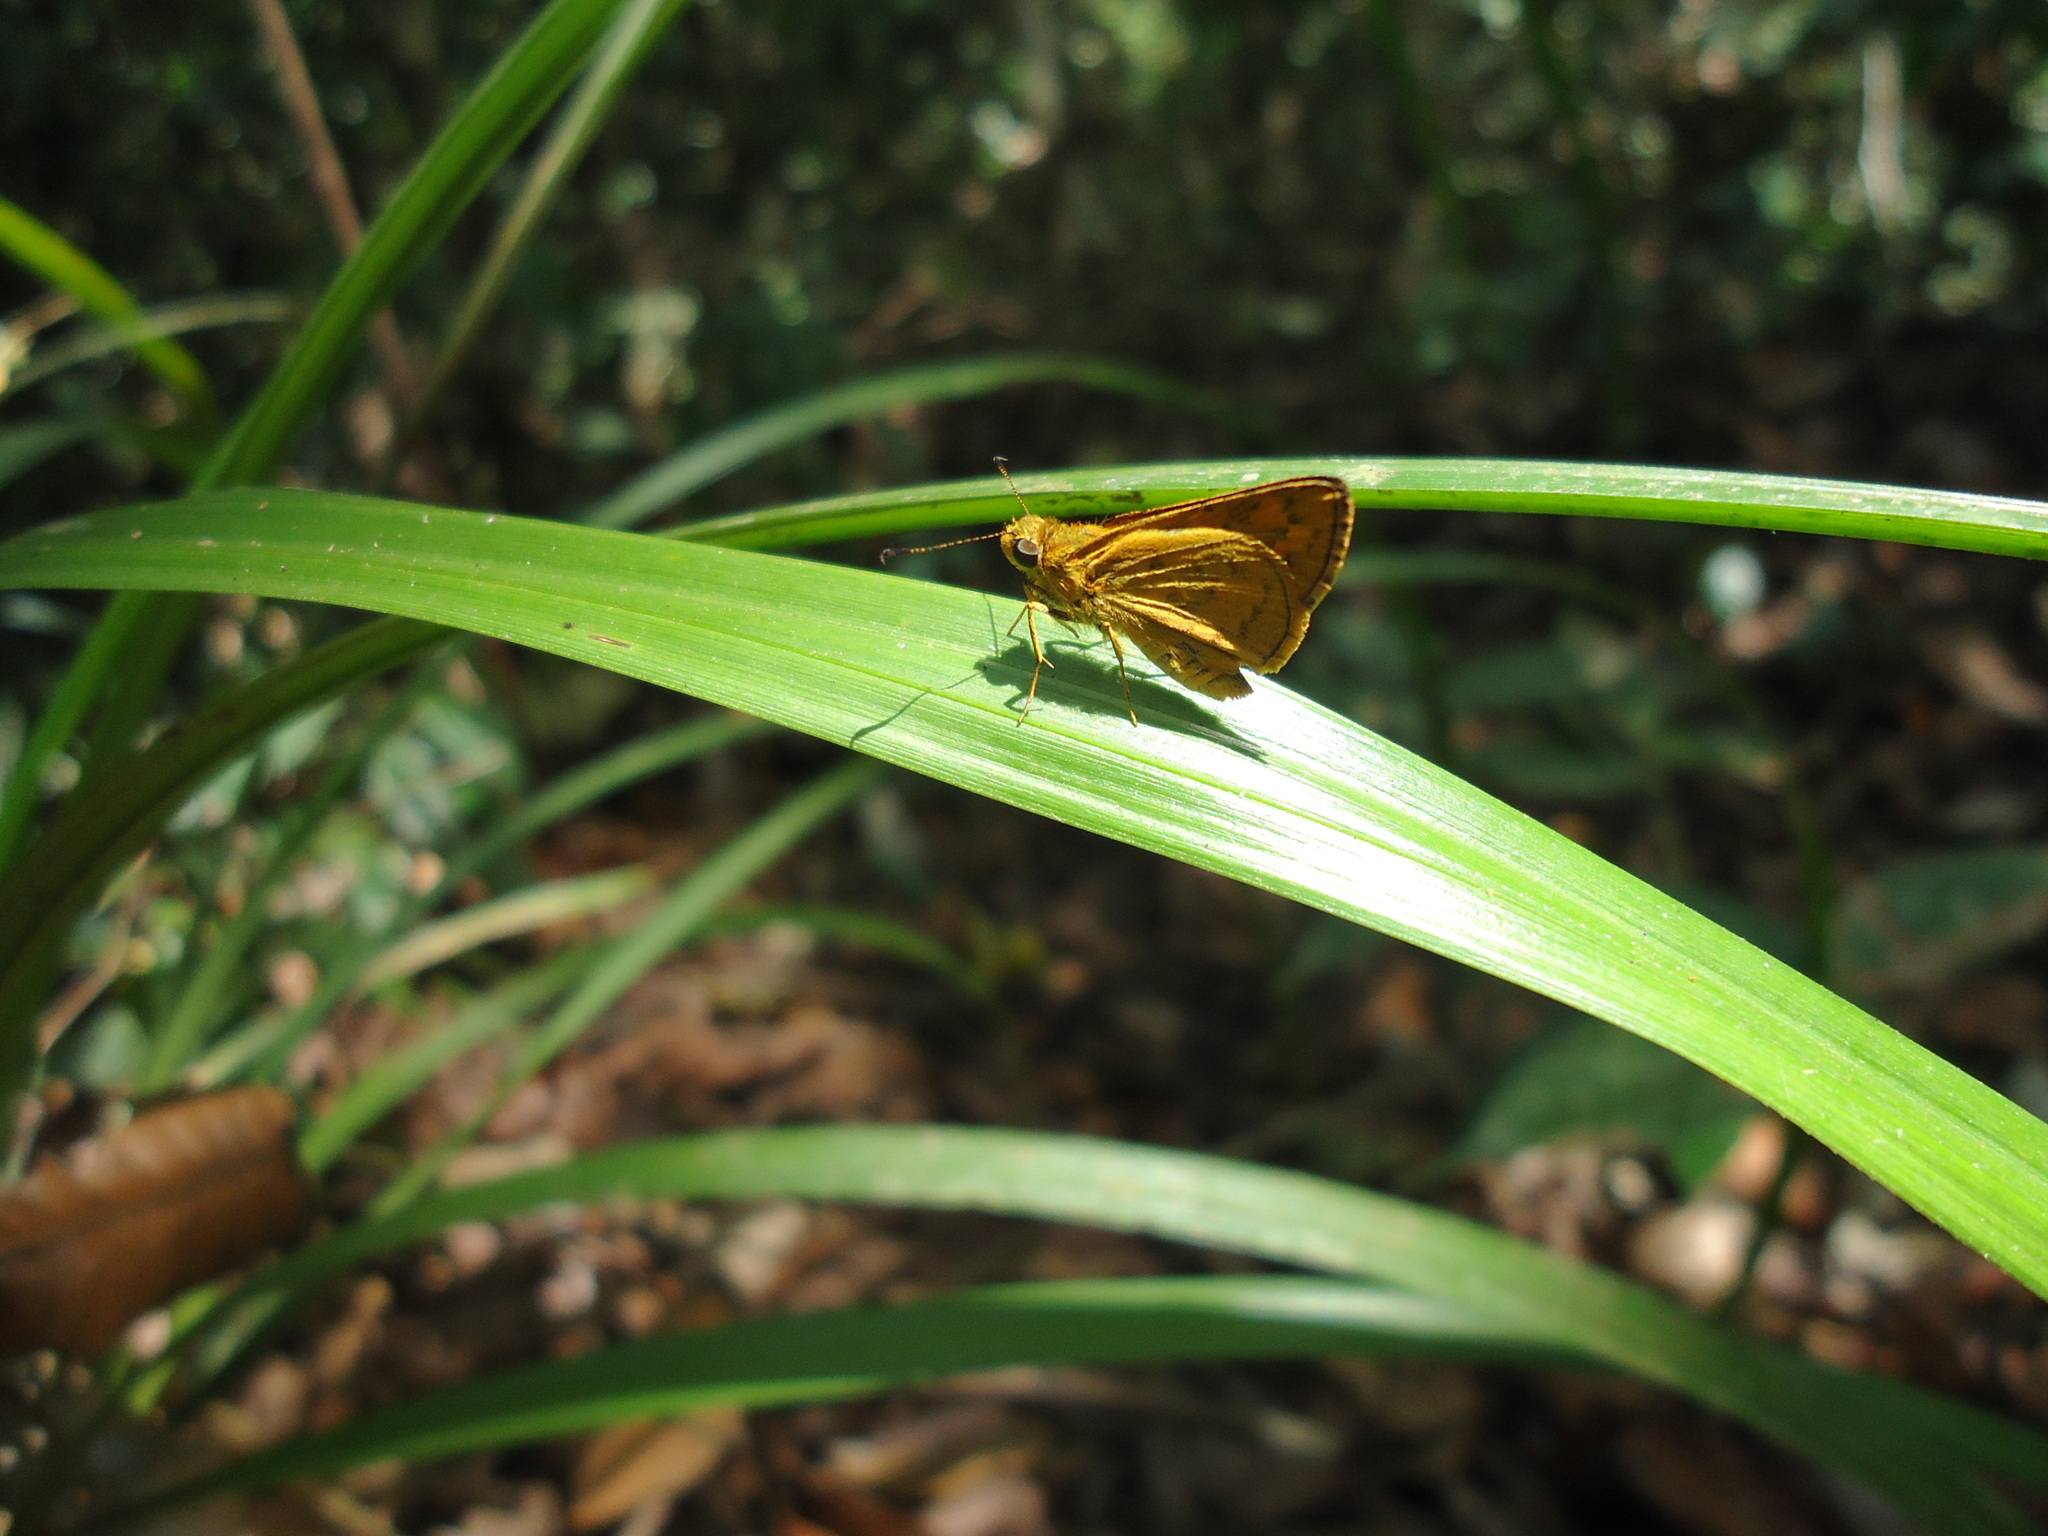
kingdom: Animalia
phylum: Arthropoda
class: Insecta
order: Lepidoptera
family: Hesperiidae
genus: Telicota
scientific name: Telicota bambusae
